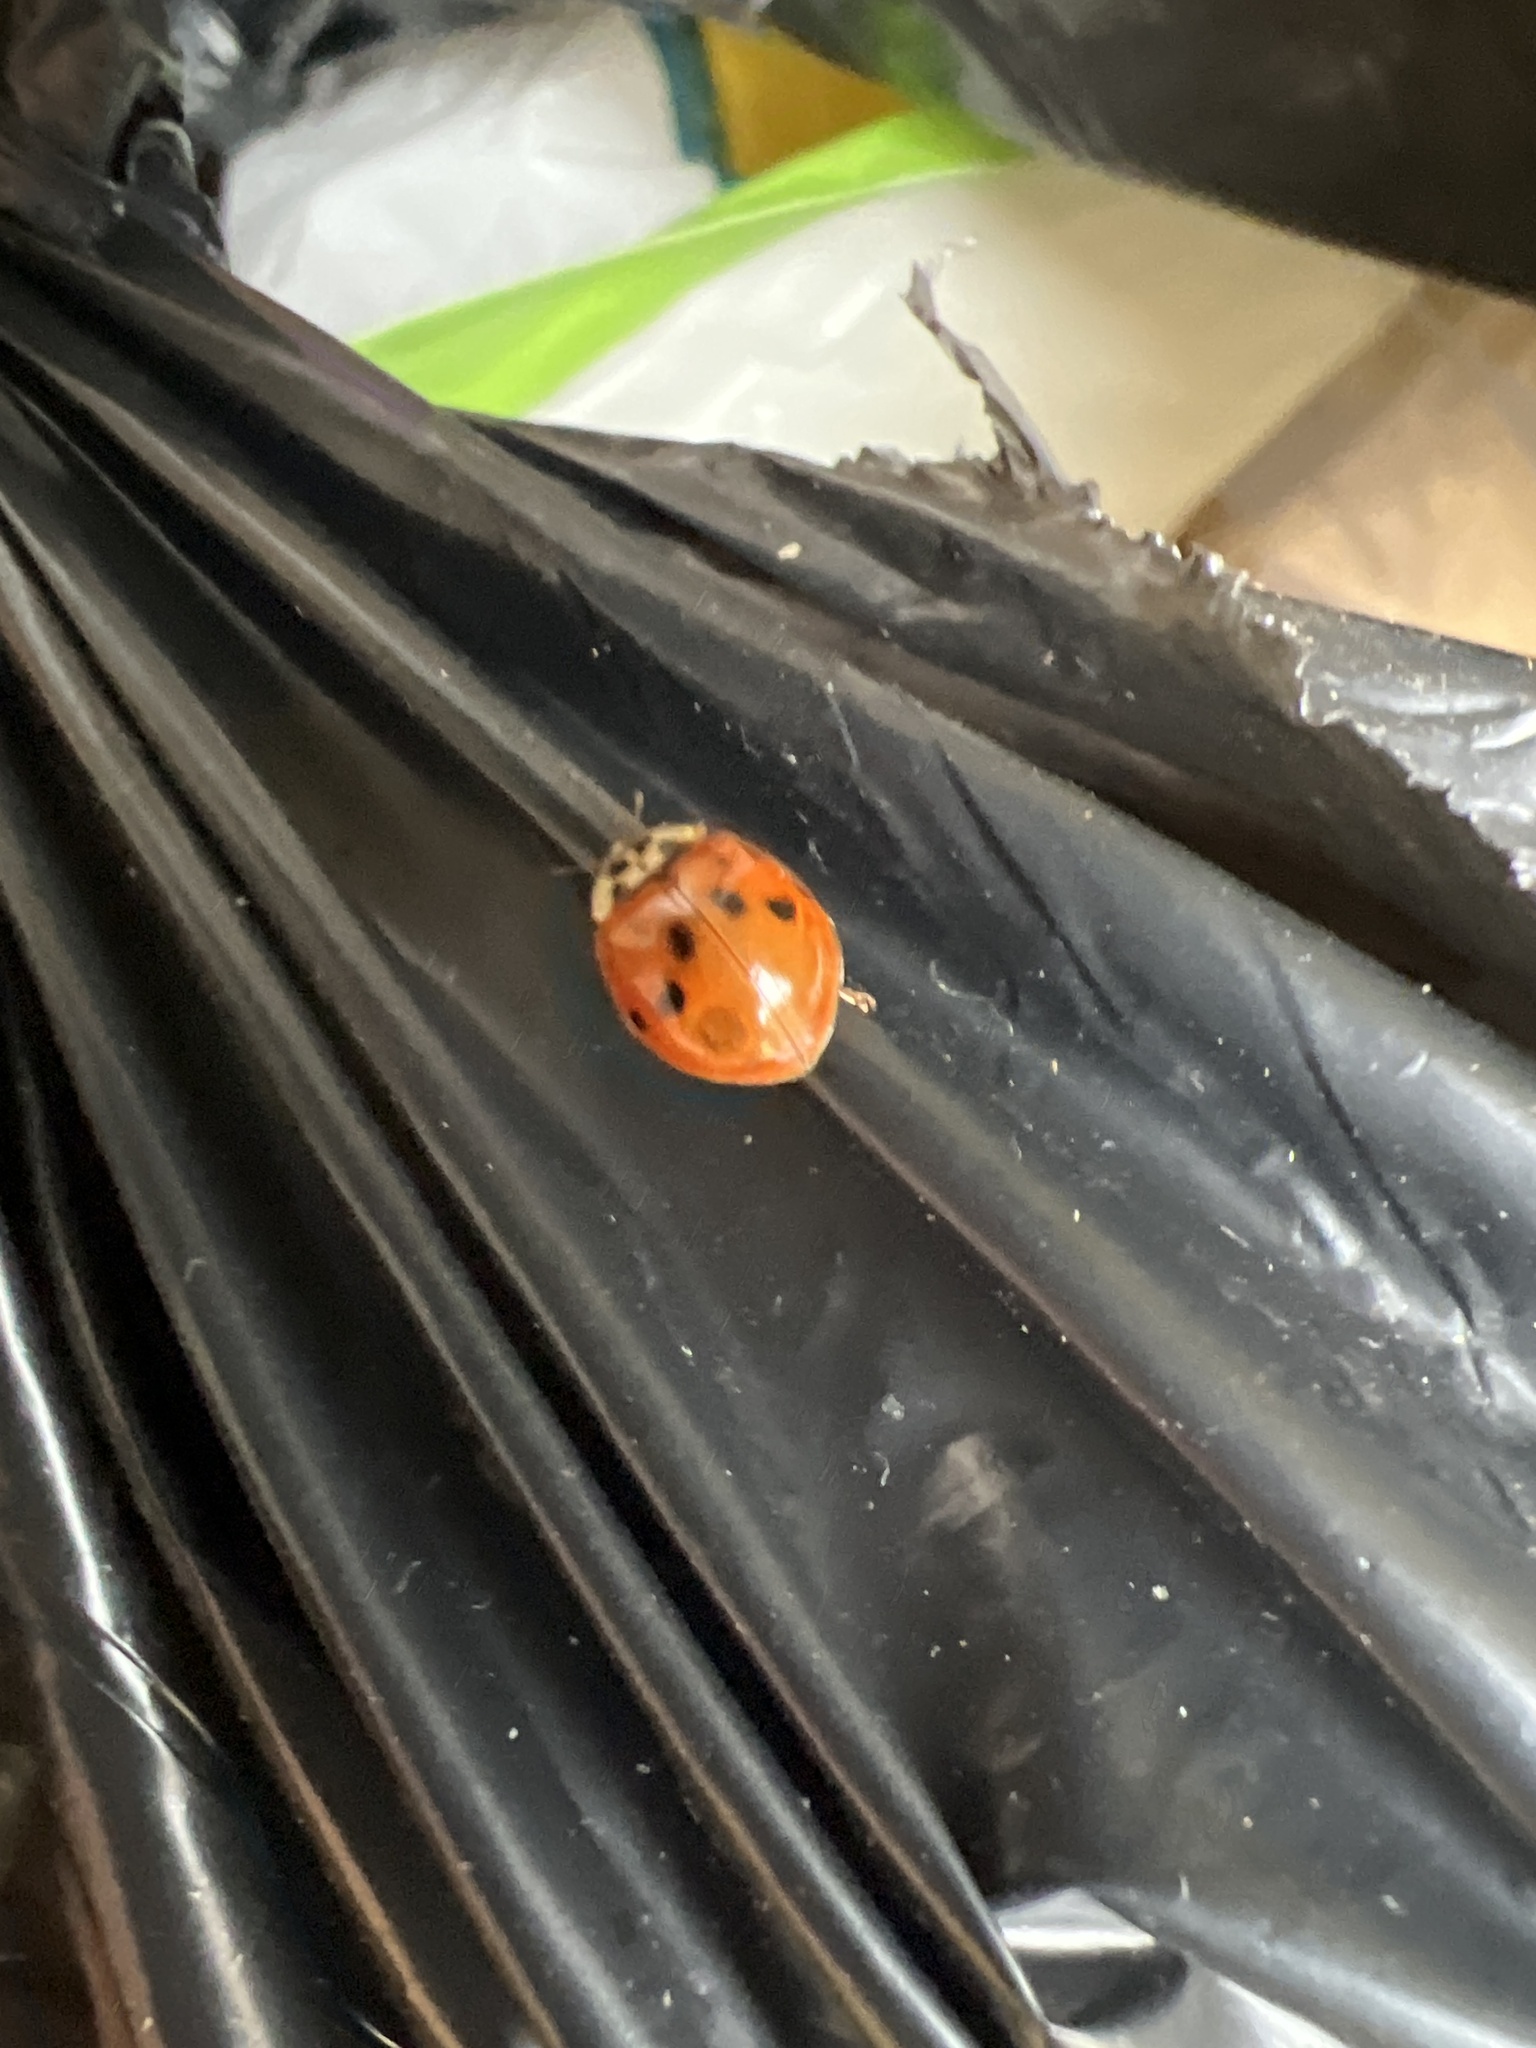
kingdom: Animalia
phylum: Arthropoda
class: Insecta
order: Coleoptera
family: Coccinellidae
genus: Harmonia
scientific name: Harmonia axyridis
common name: Harlequin ladybird
